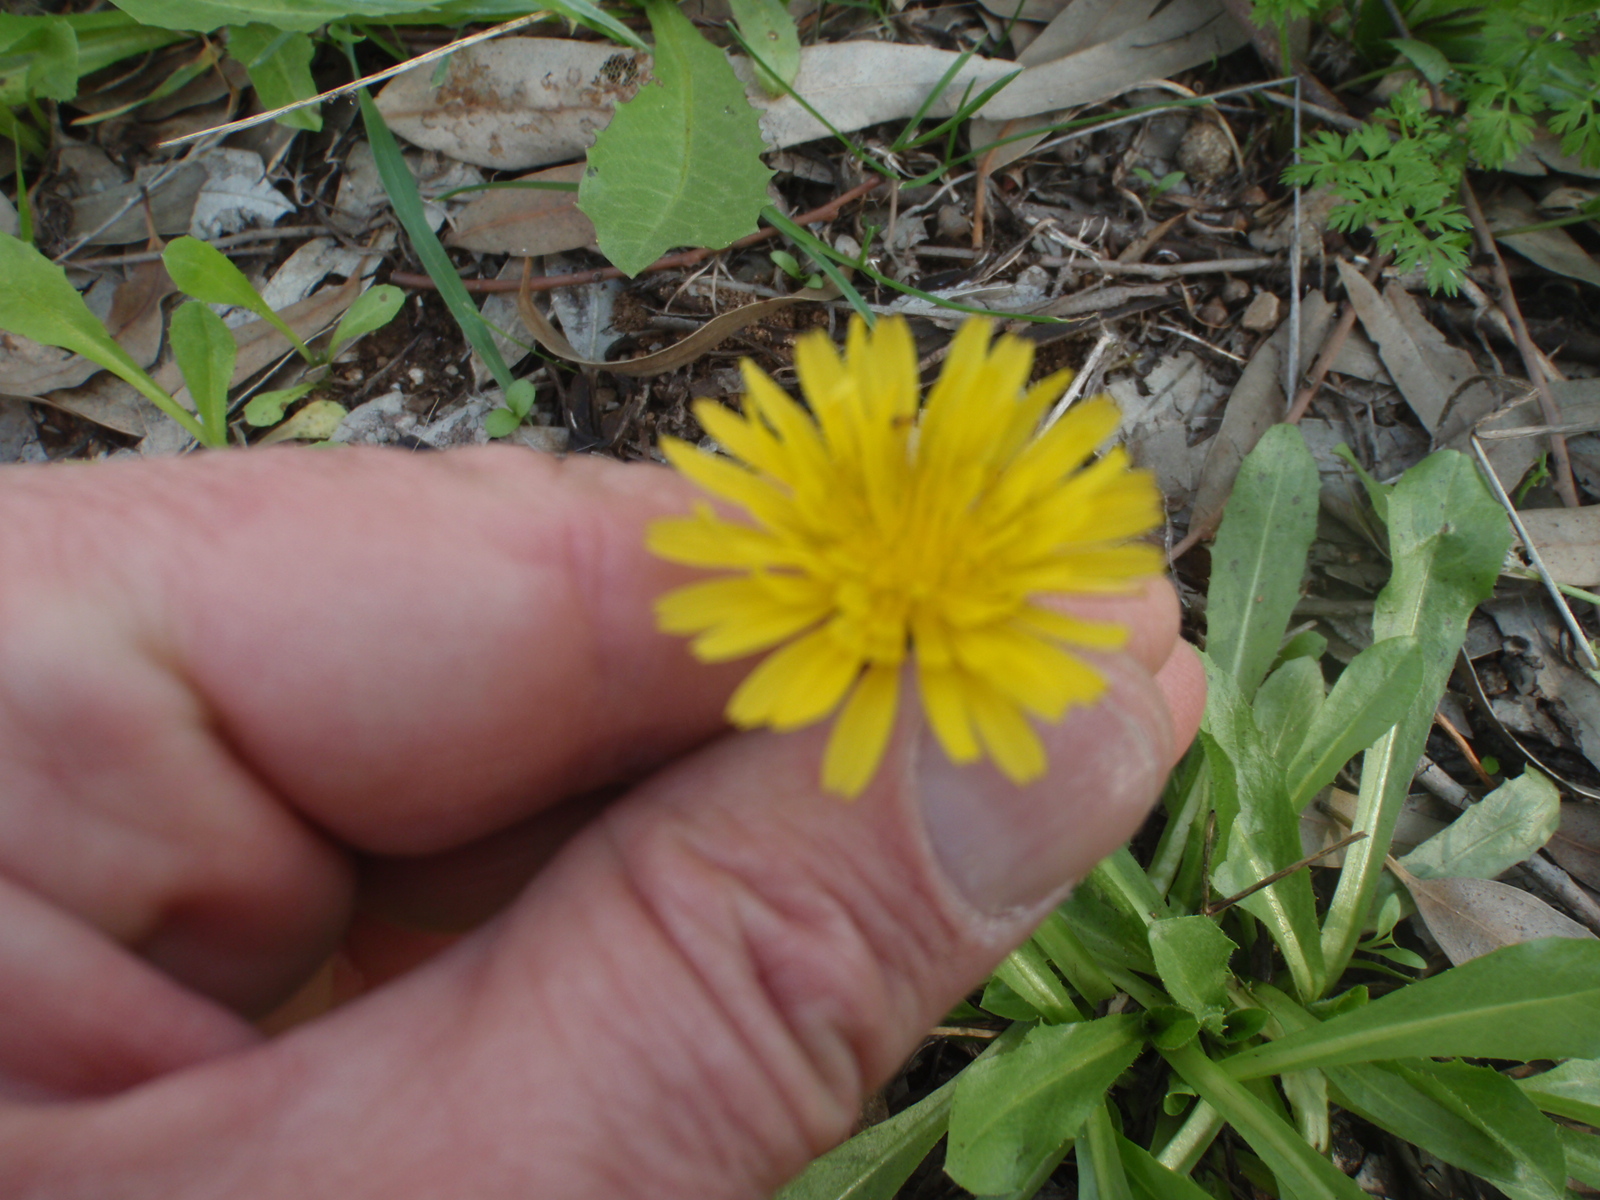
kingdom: Plantae
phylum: Tracheophyta
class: Magnoliopsida
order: Asterales
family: Asteraceae
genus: Picris
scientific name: Picris hieracioides
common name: Hawkweed oxtongue
